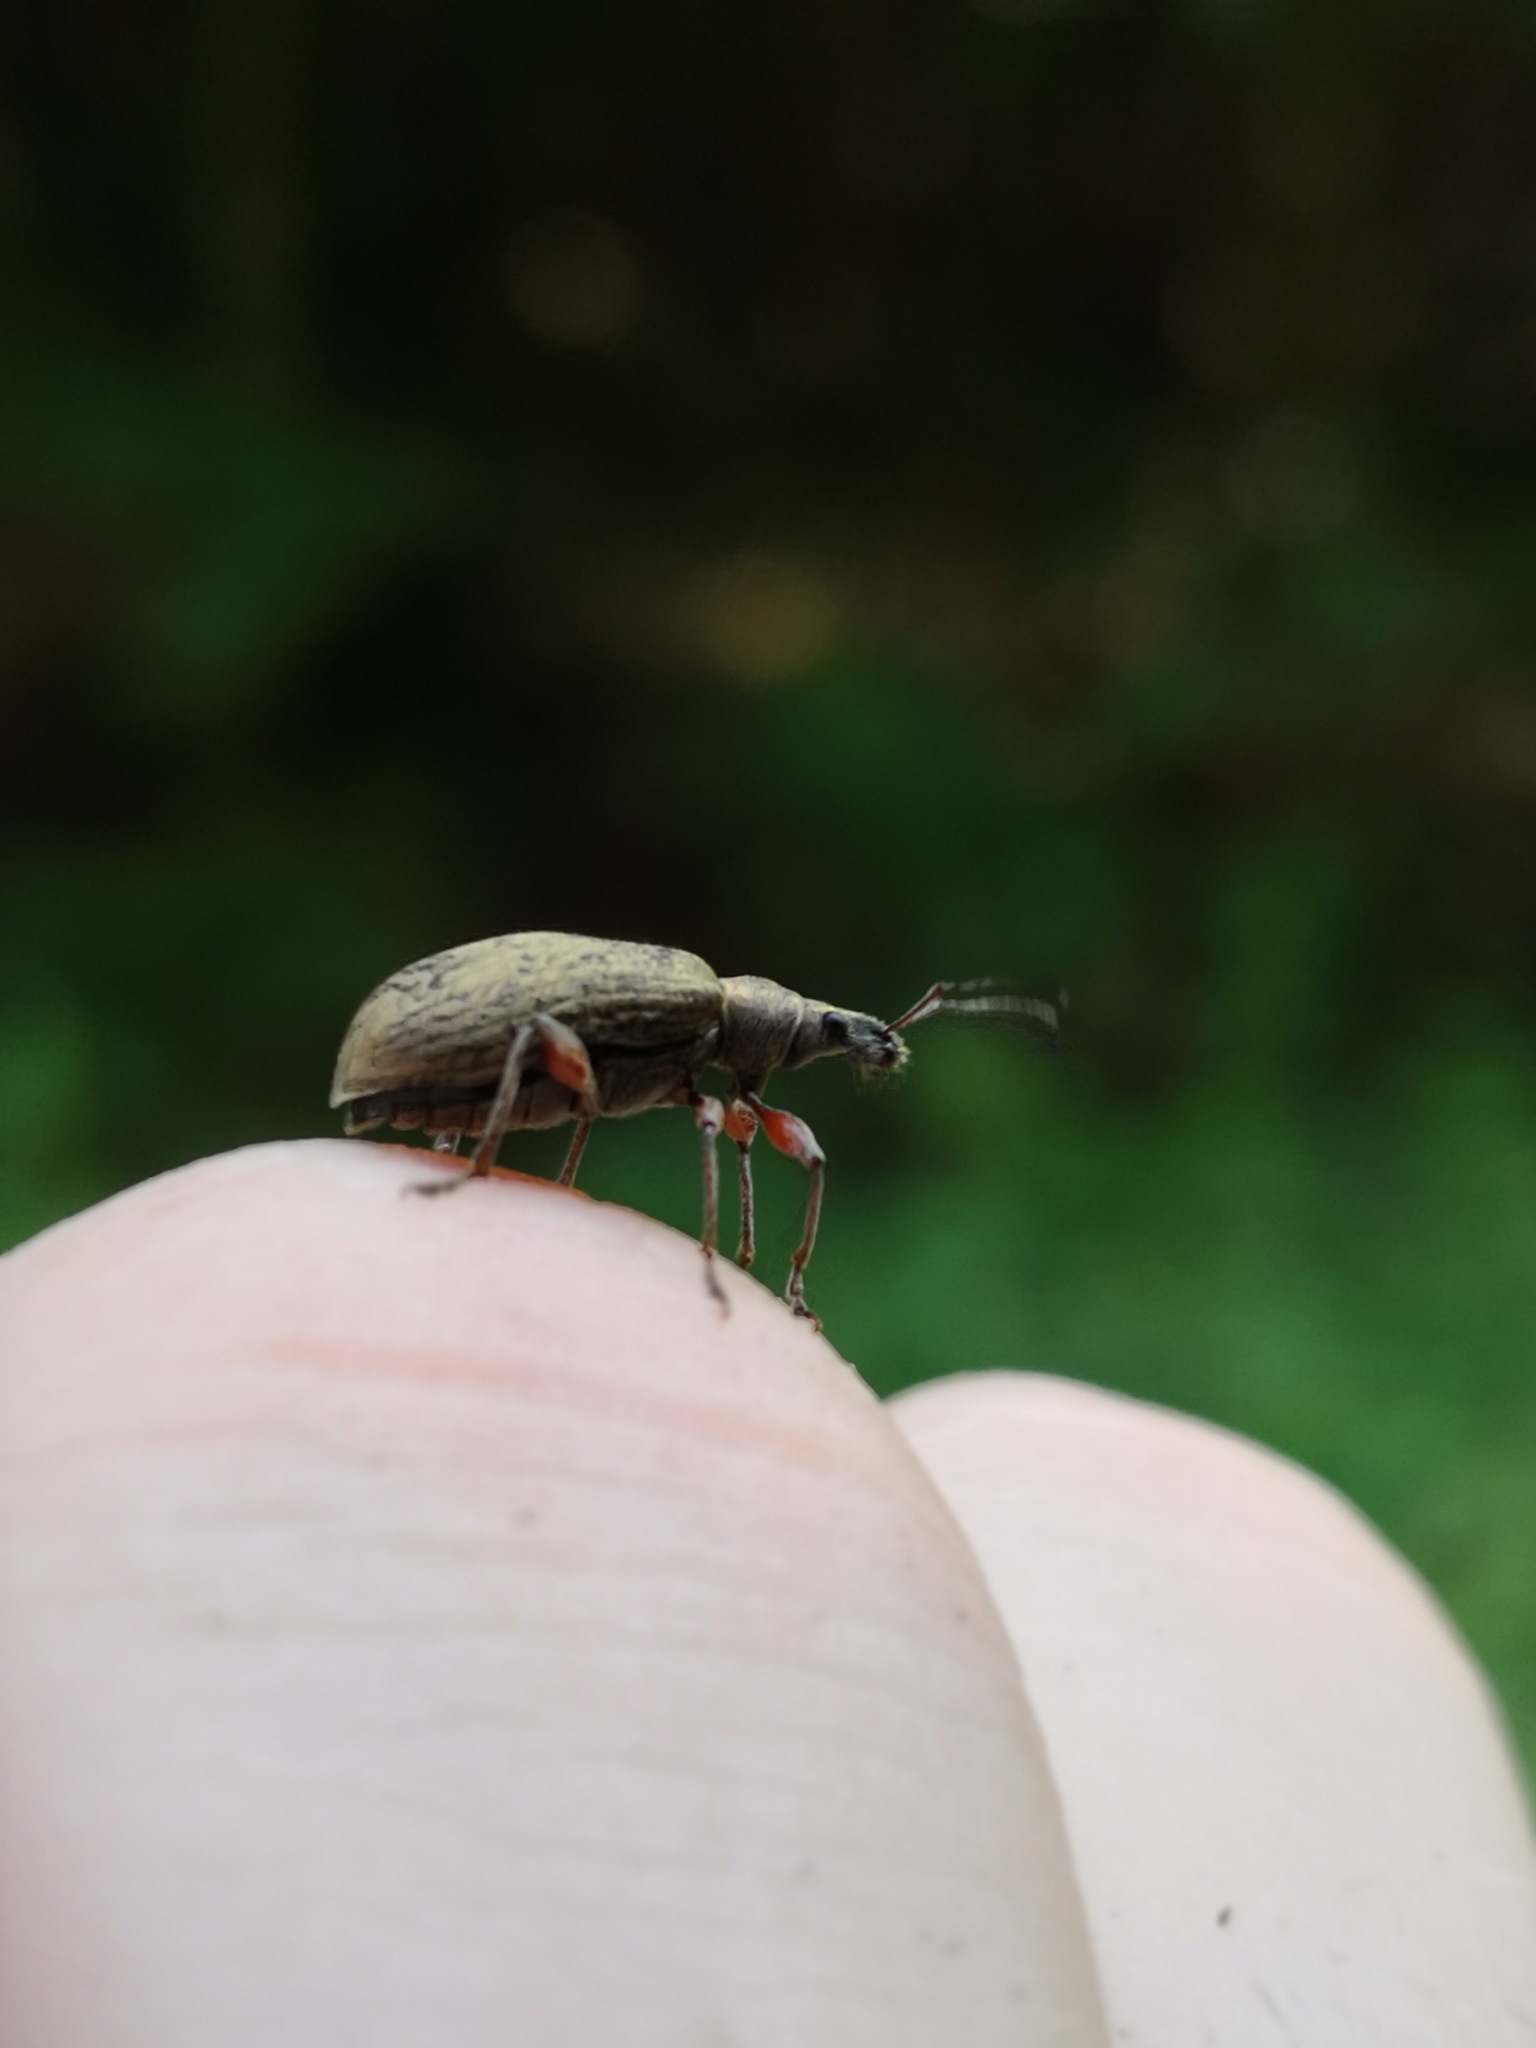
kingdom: Animalia
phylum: Arthropoda
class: Insecta
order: Coleoptera
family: Curculionidae
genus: Phyllobius
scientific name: Phyllobius glaucus
